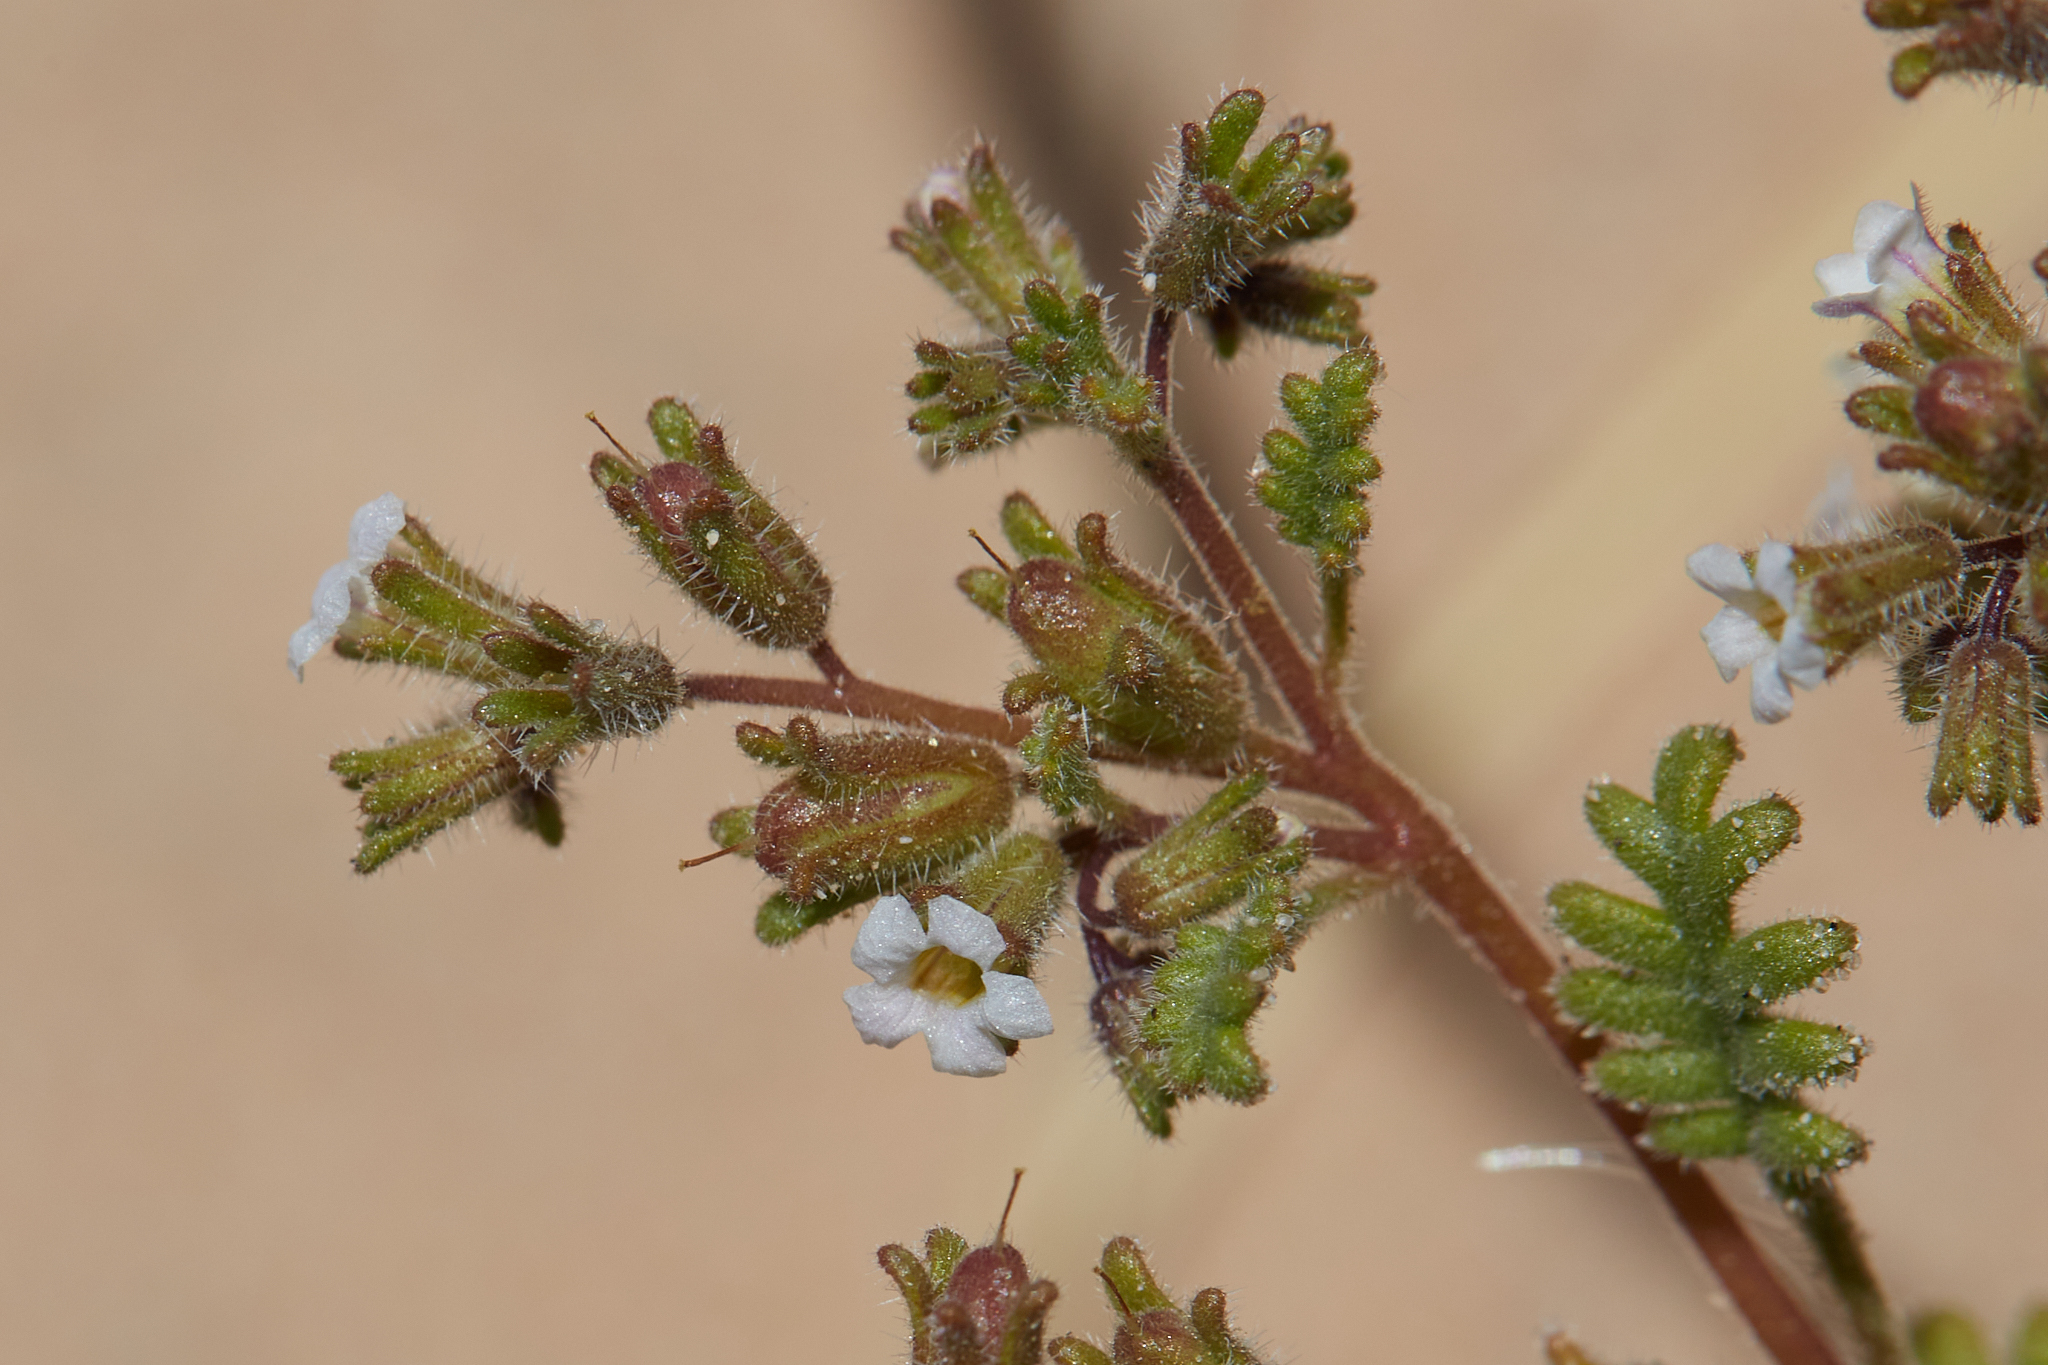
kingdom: Plantae
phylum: Tracheophyta
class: Magnoliopsida
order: Boraginales
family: Hydrophyllaceae
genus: Phacelia
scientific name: Phacelia ivesiana
